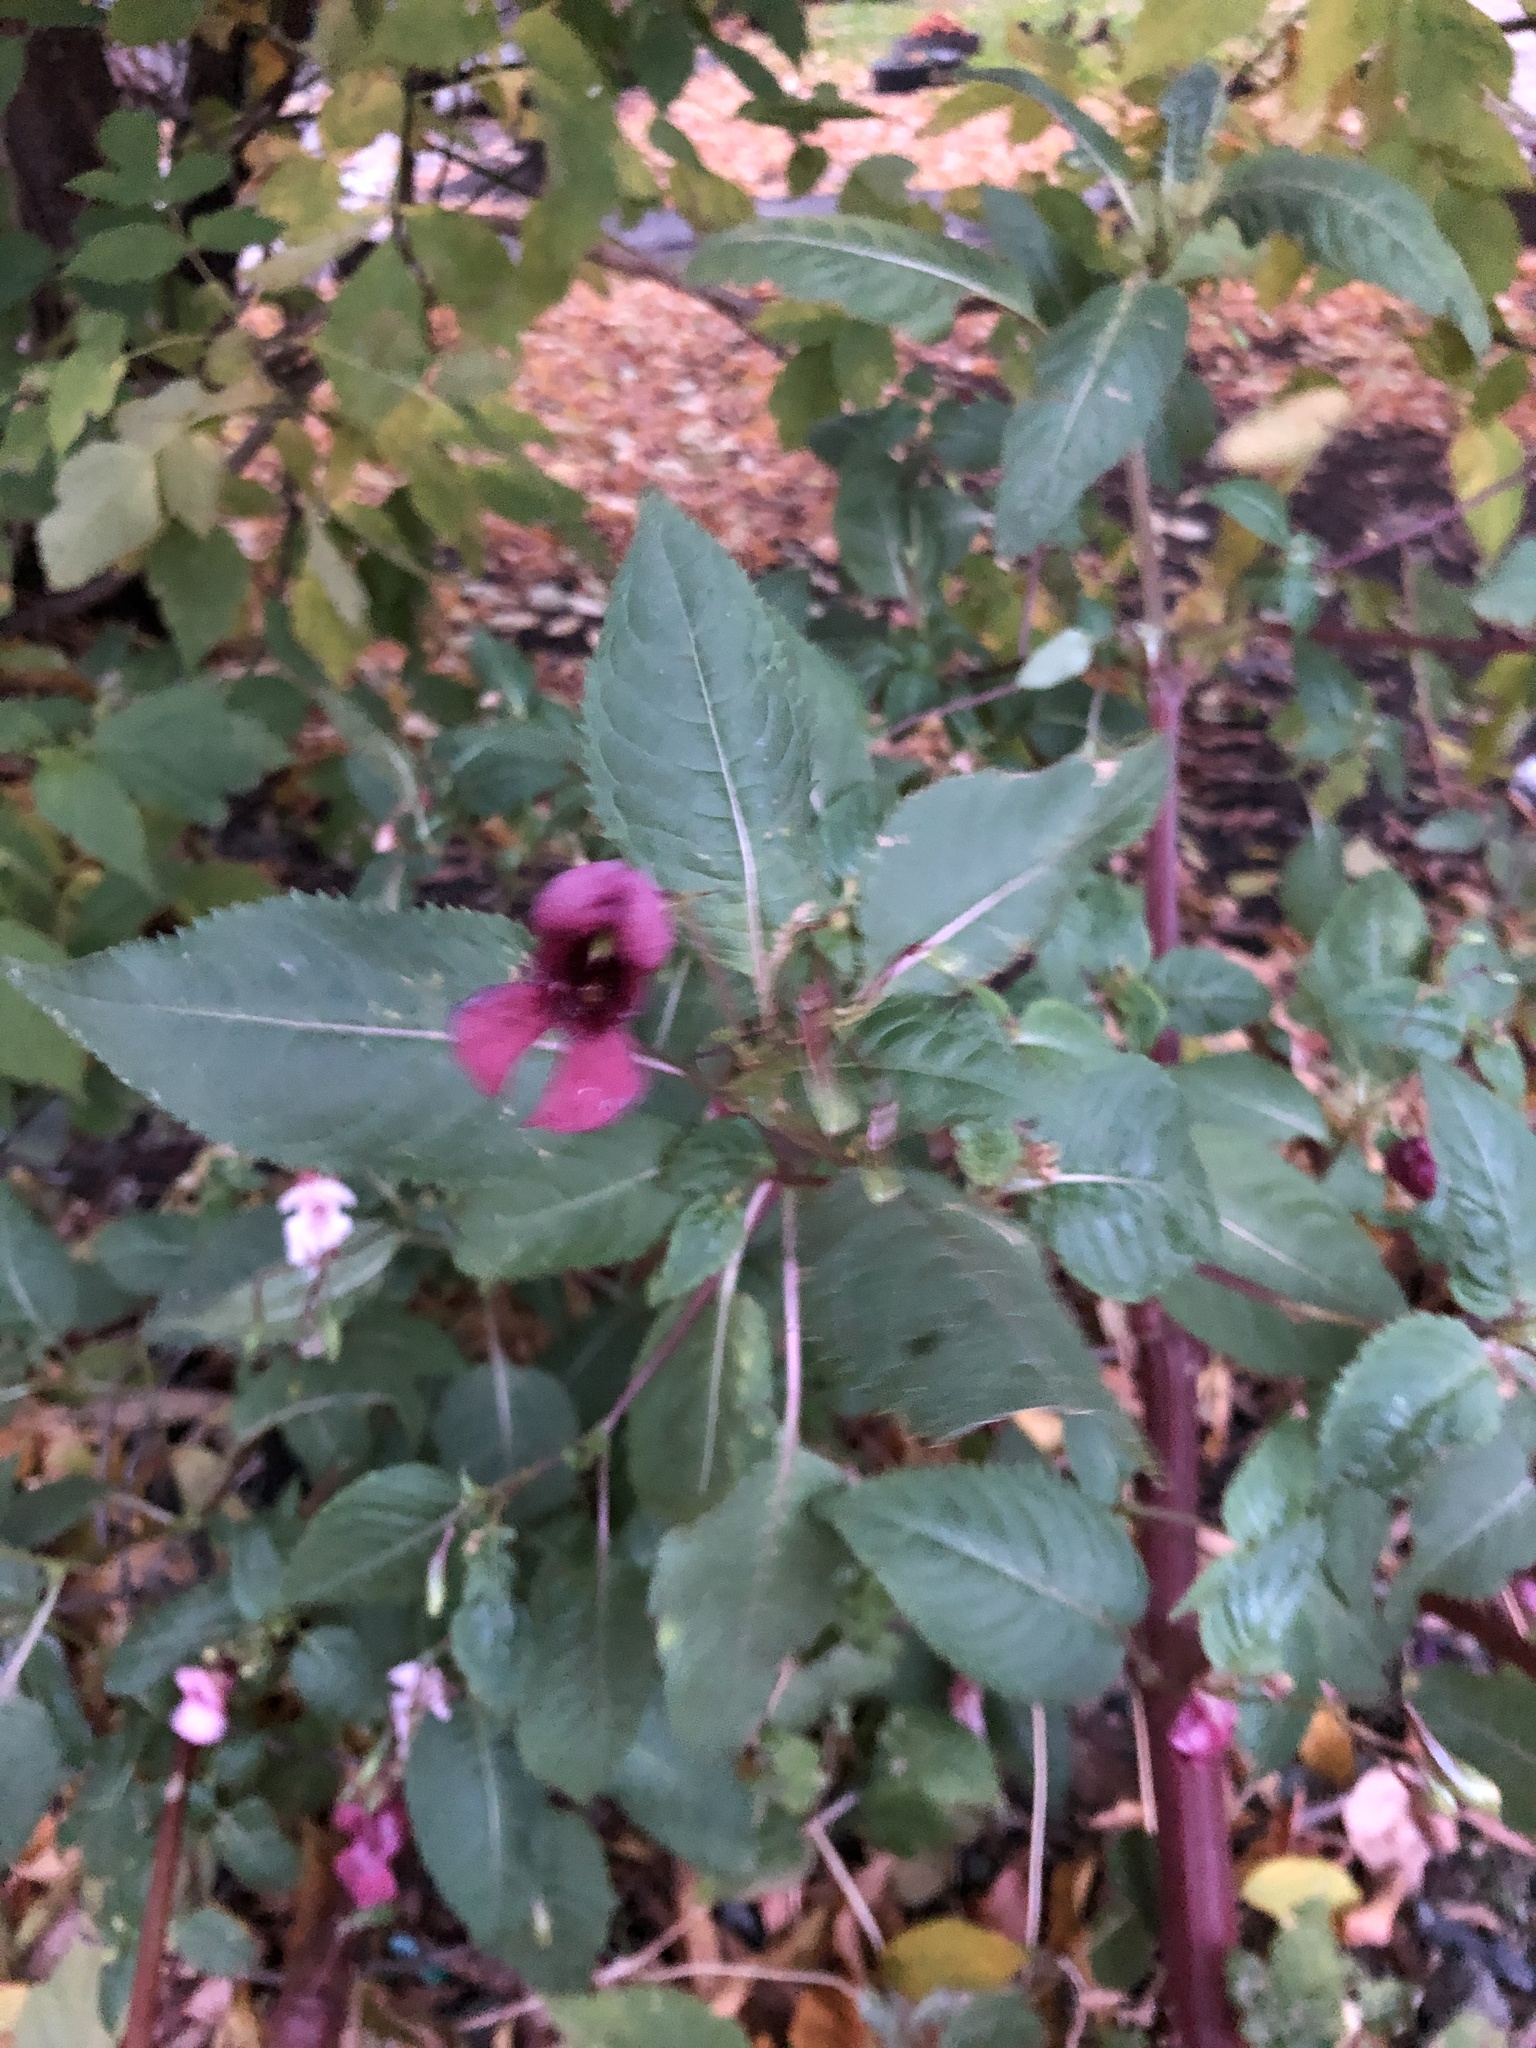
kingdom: Plantae
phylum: Tracheophyta
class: Magnoliopsida
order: Ericales
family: Balsaminaceae
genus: Impatiens
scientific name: Impatiens glandulifera
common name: Himalayan balsam
